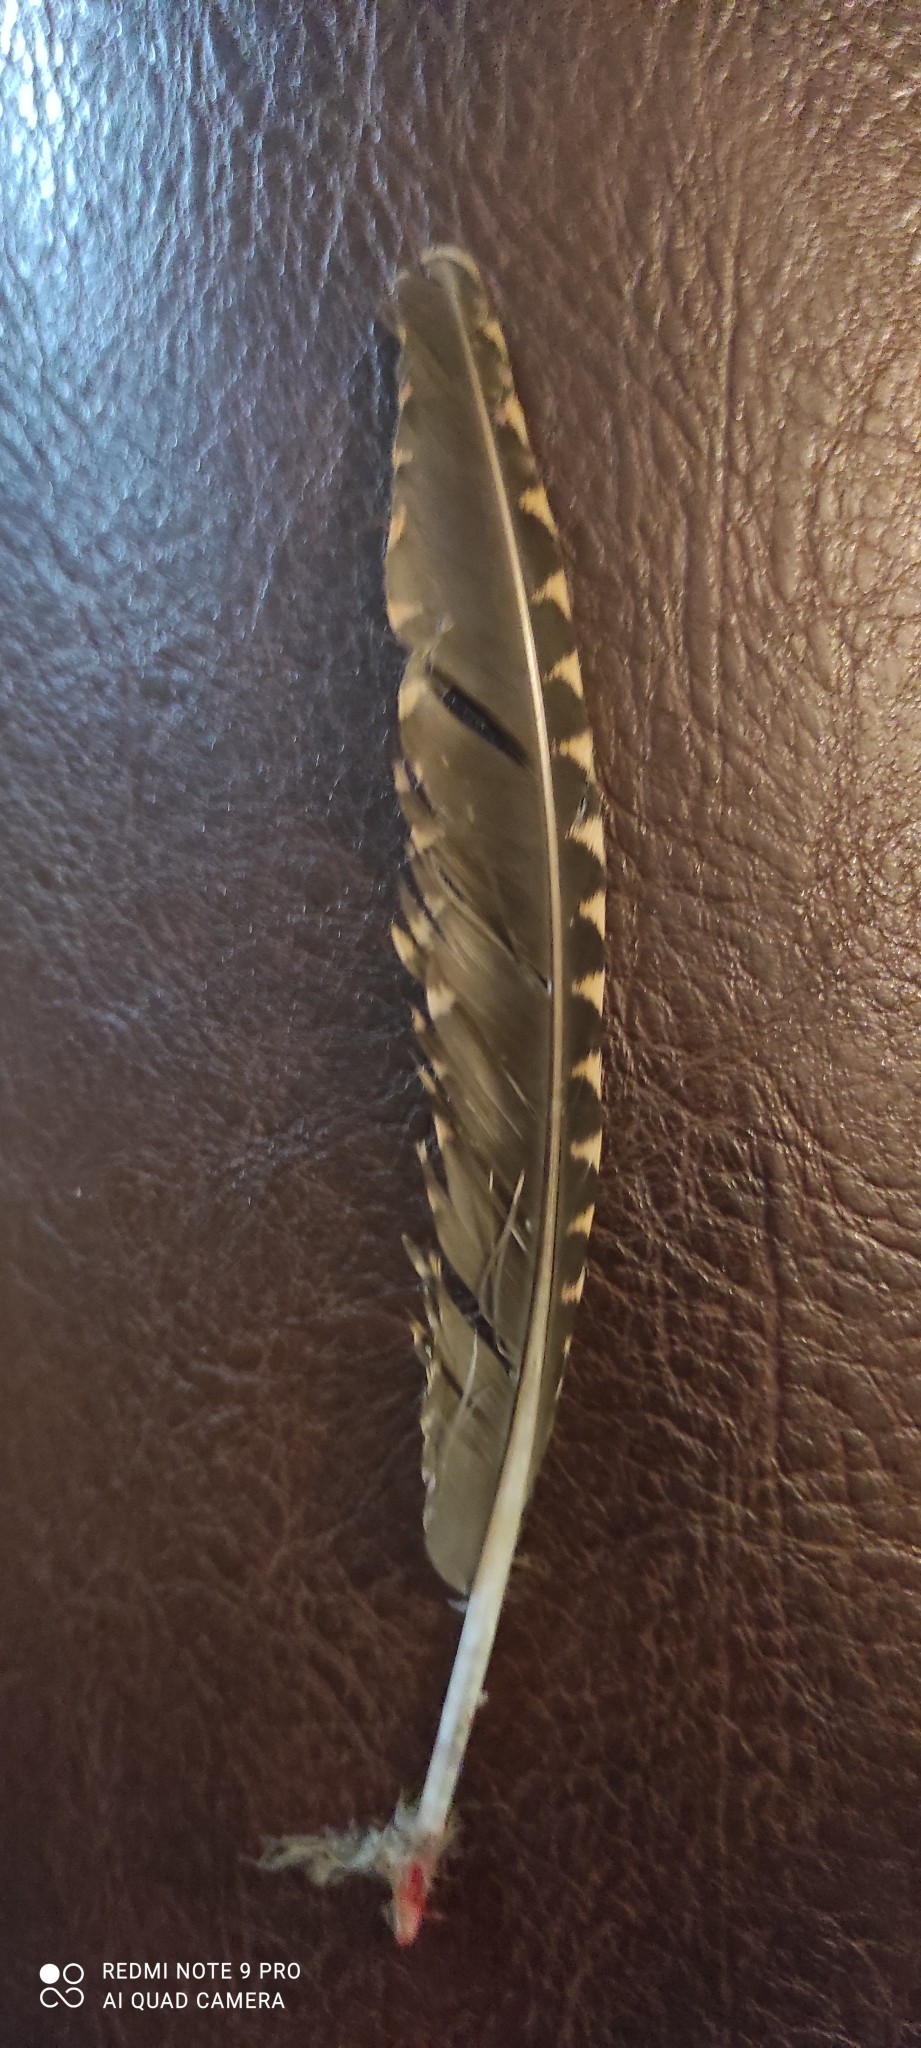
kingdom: Animalia
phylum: Chordata
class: Aves
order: Charadriiformes
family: Scolopacidae
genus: Scolopax
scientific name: Scolopax rusticola
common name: Eurasian woodcock
